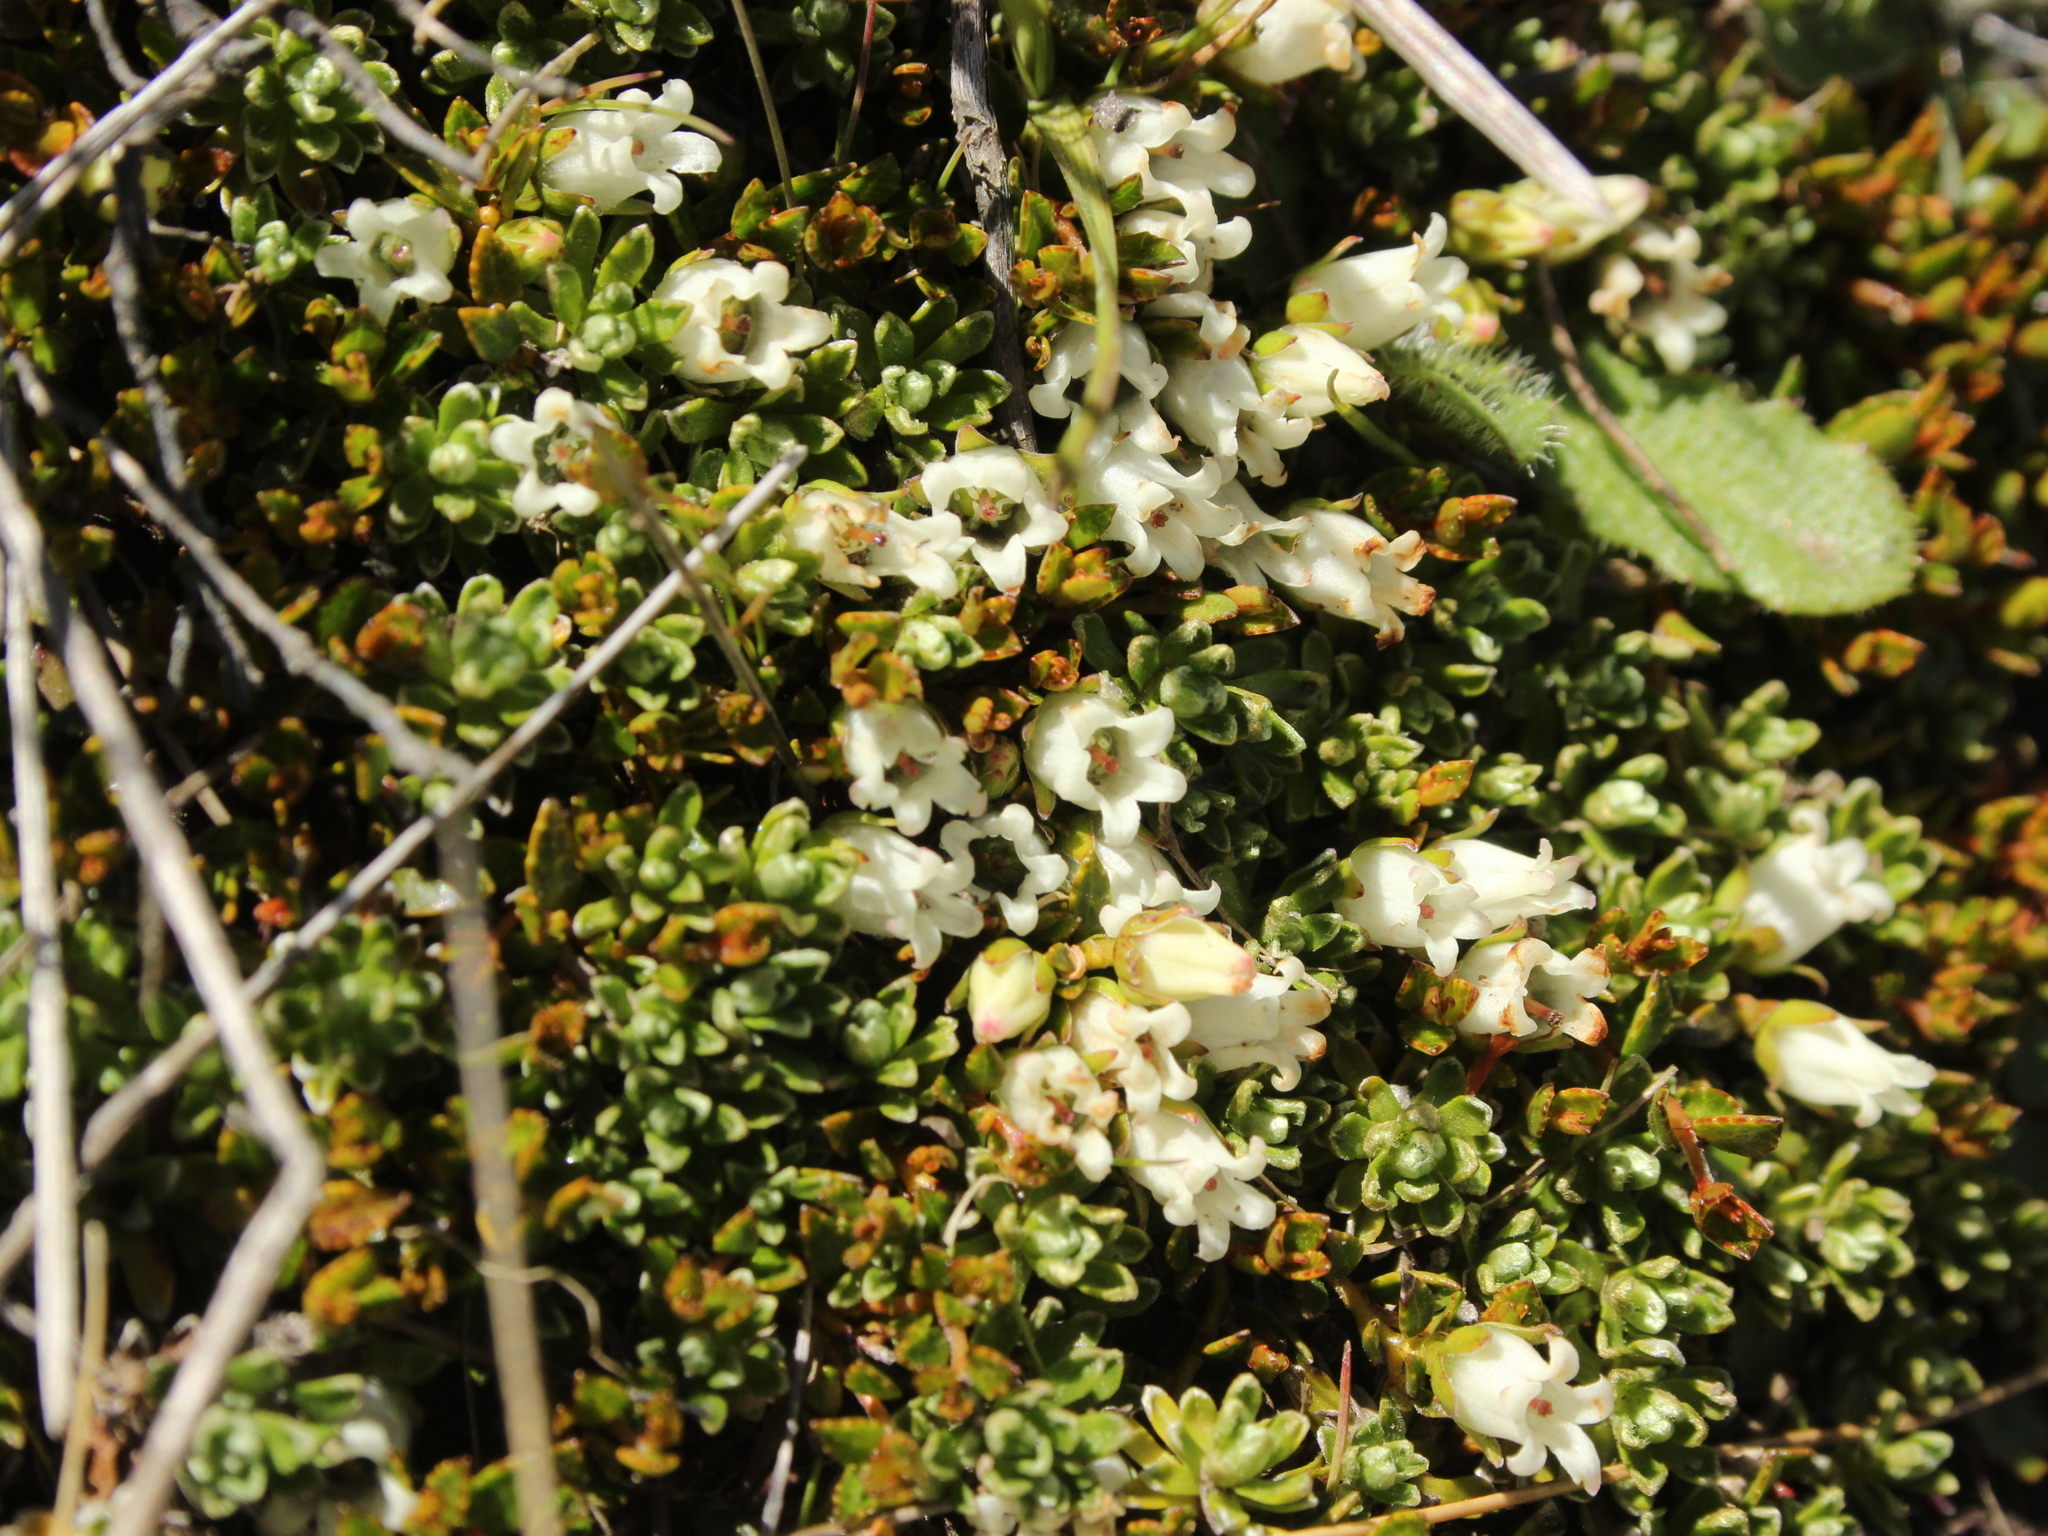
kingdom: Plantae
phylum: Tracheophyta
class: Magnoliopsida
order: Ericales
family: Ericaceae
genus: Gaultheria
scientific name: Gaultheria parvula
